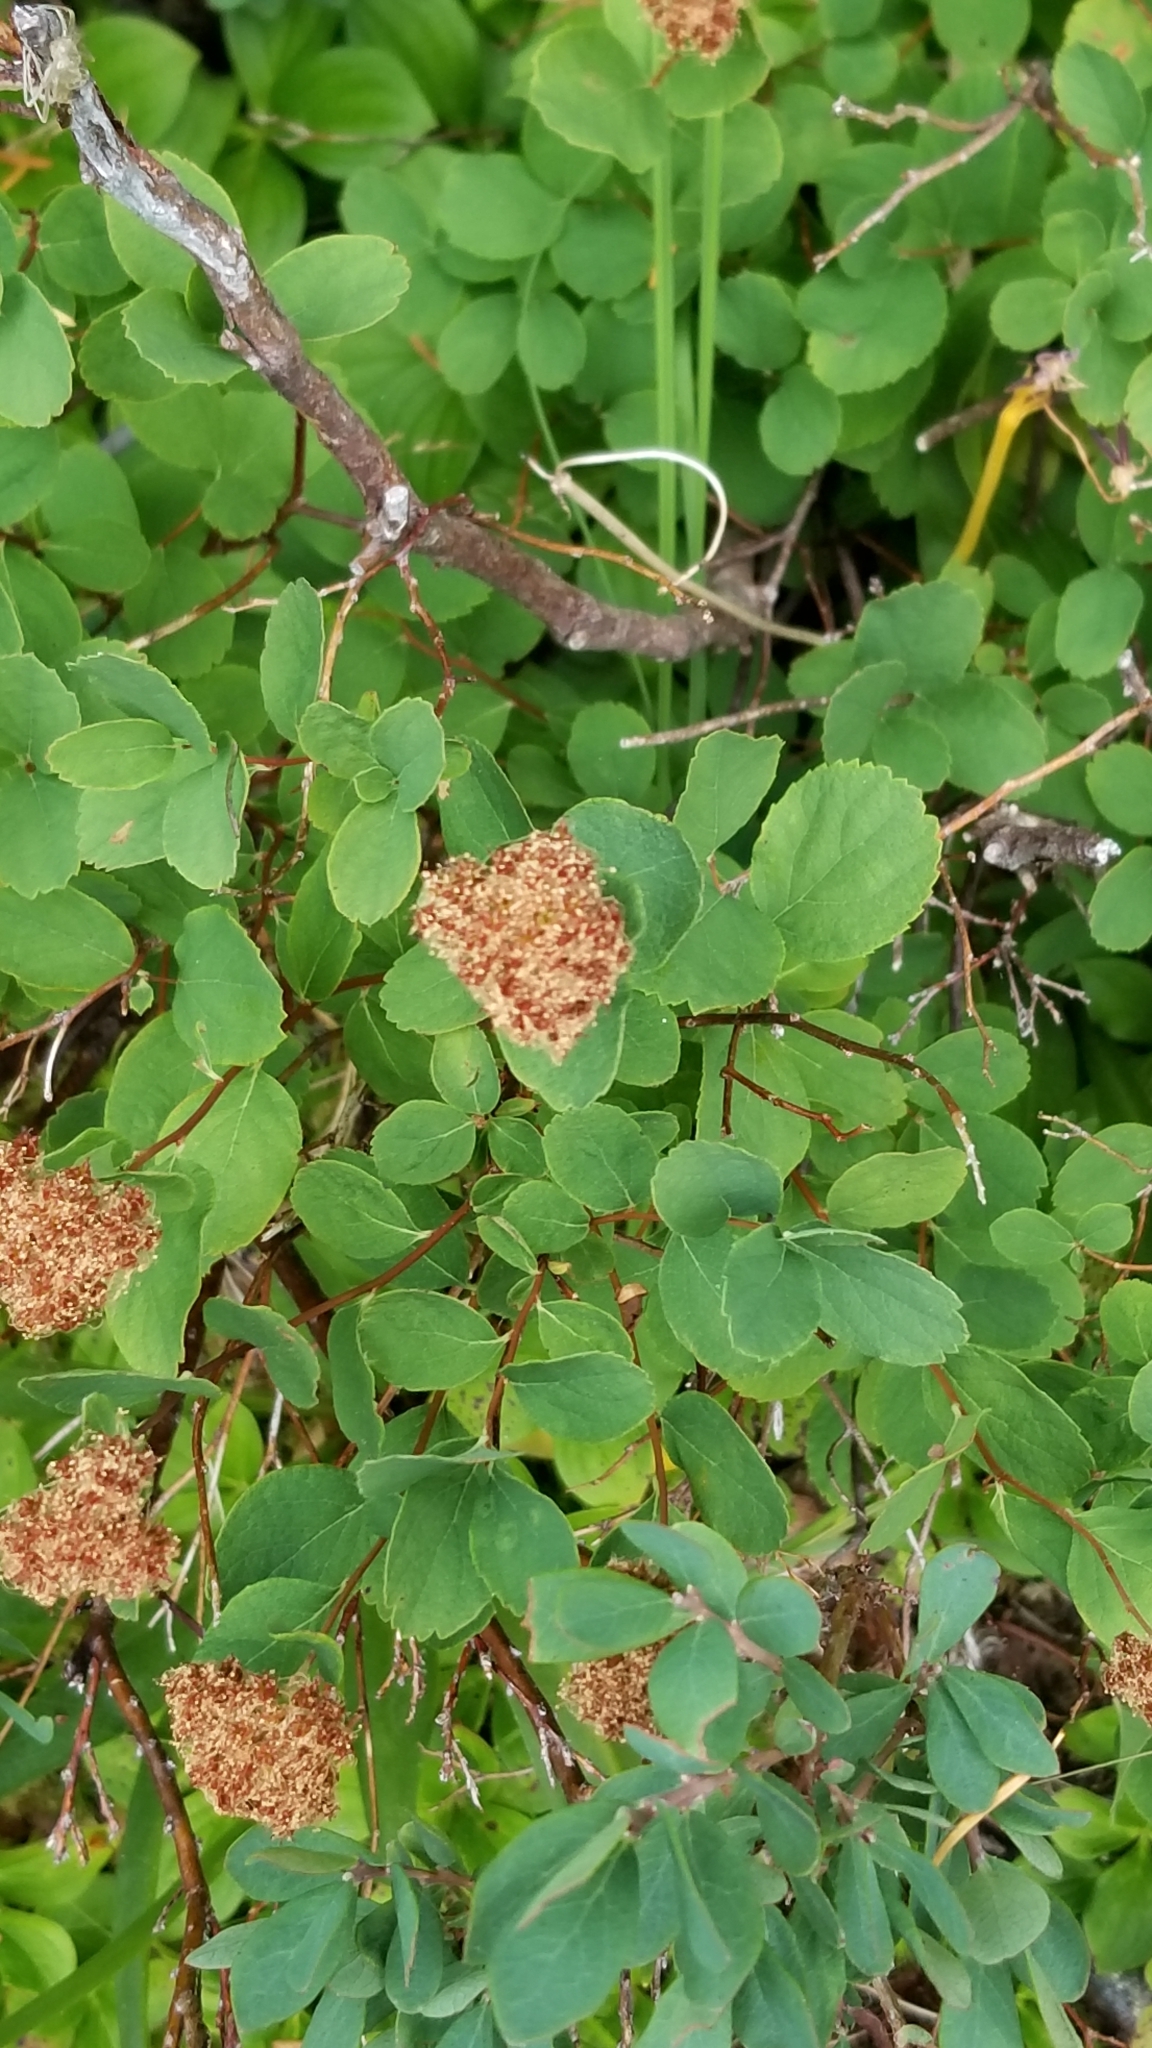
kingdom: Plantae
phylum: Tracheophyta
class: Magnoliopsida
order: Rosales
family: Rosaceae
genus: Spiraea
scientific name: Spiraea splendens
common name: Subalpine meadowsweet
